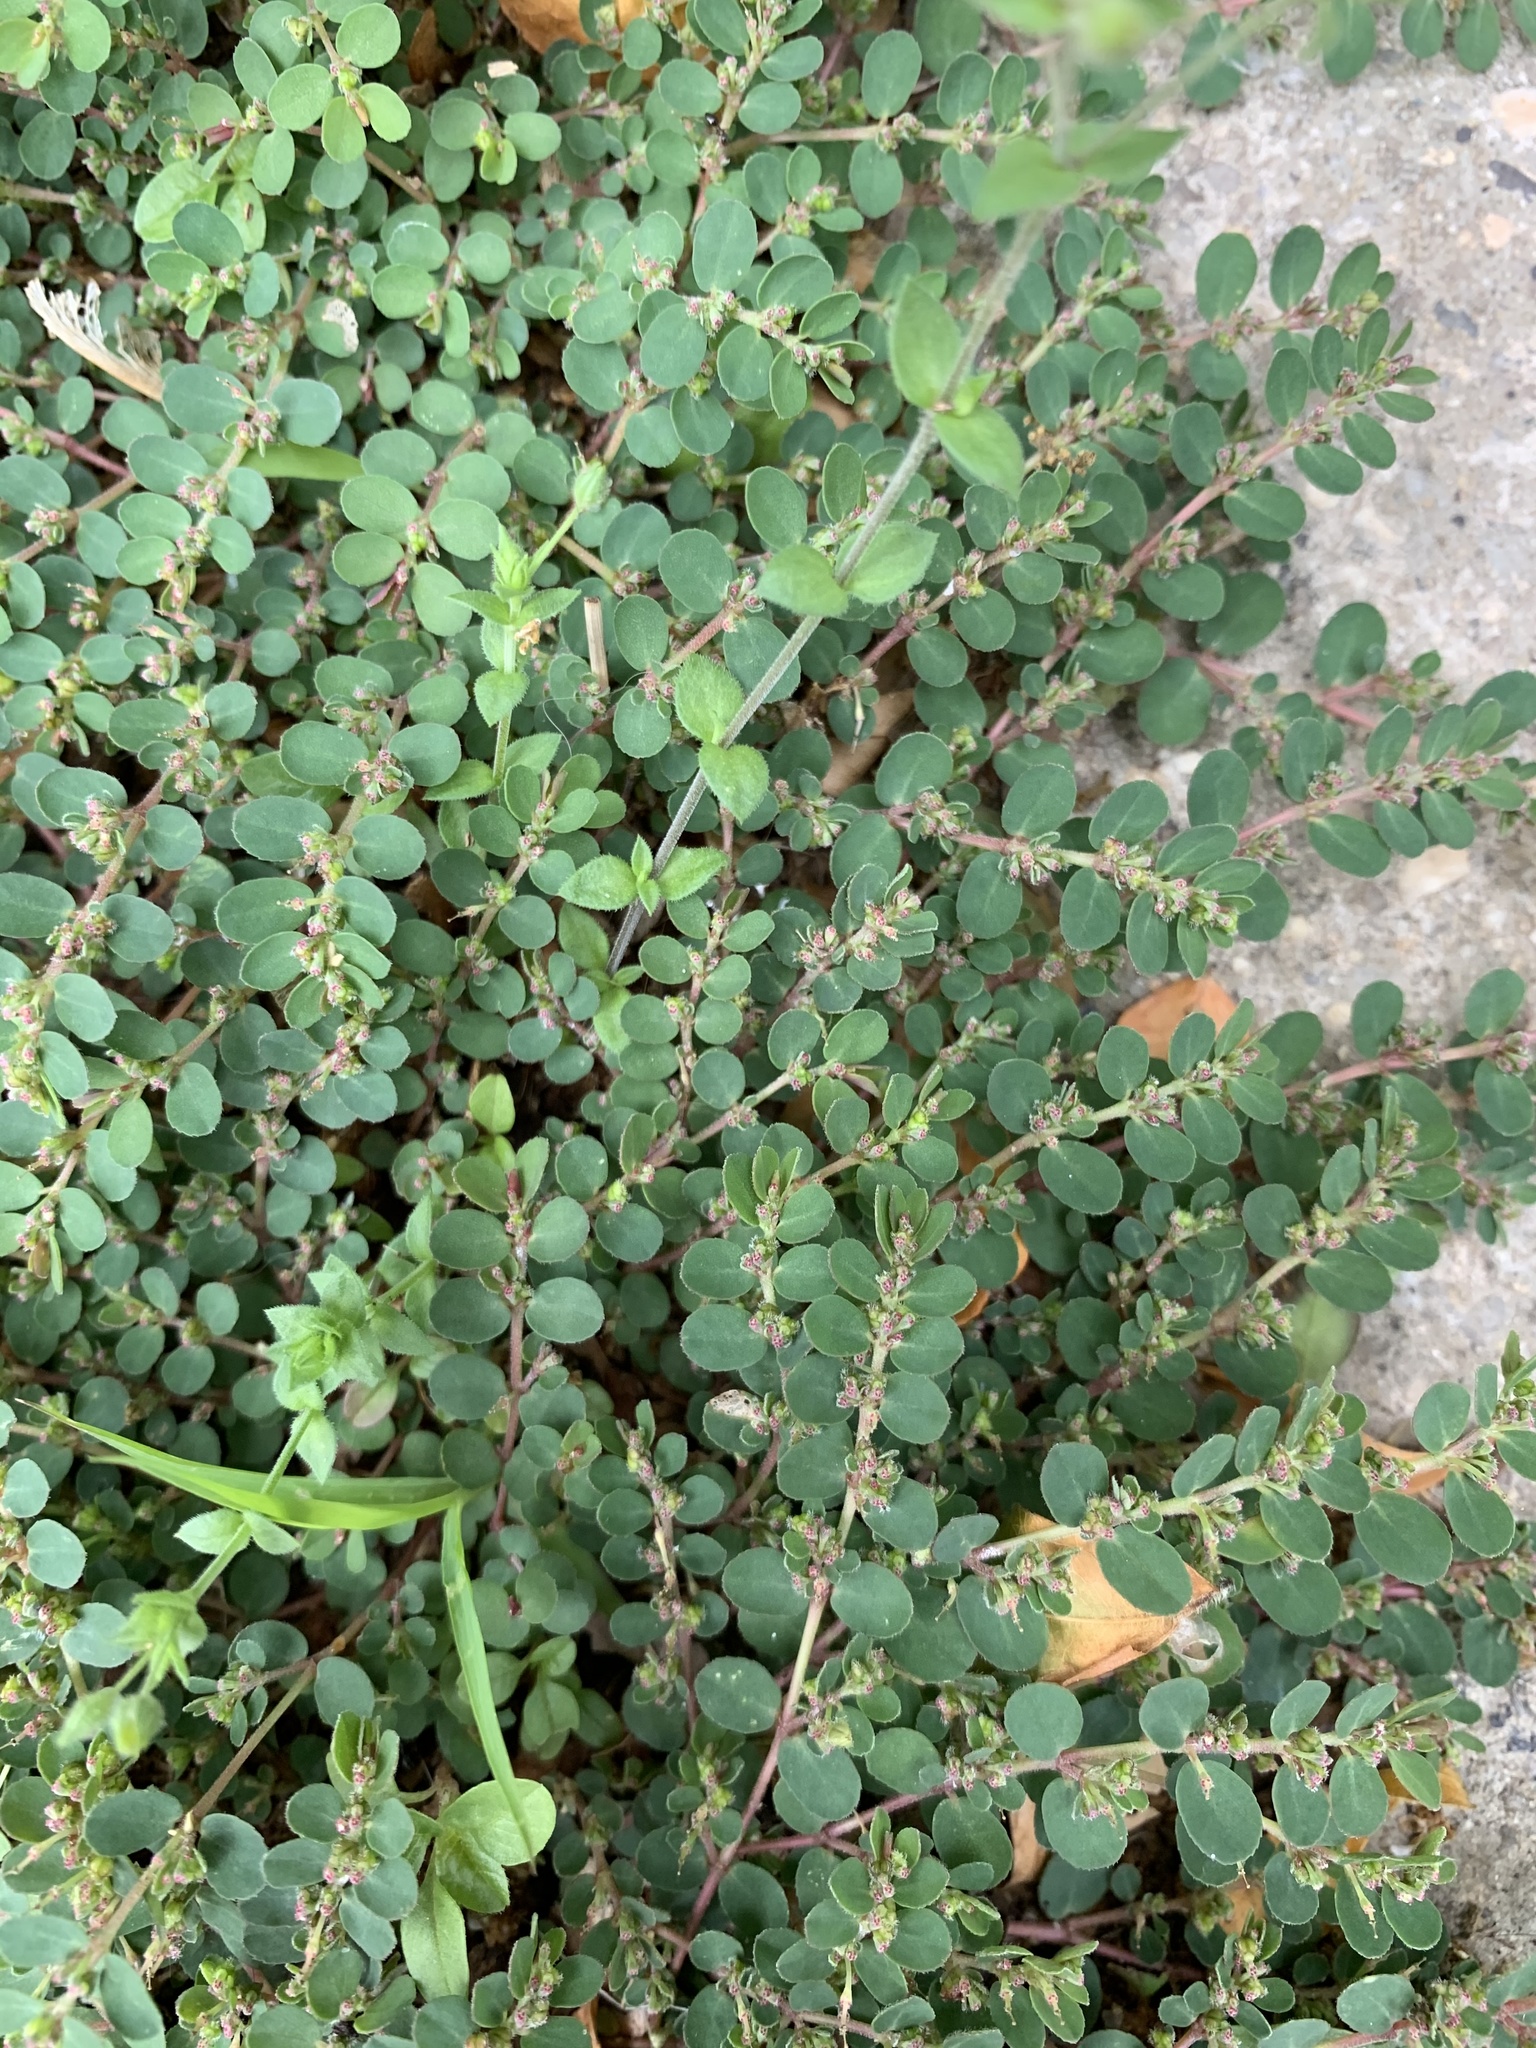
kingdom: Plantae
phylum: Tracheophyta
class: Magnoliopsida
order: Malpighiales
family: Euphorbiaceae
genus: Euphorbia
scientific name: Euphorbia prostrata
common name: Prostrate sandmat
